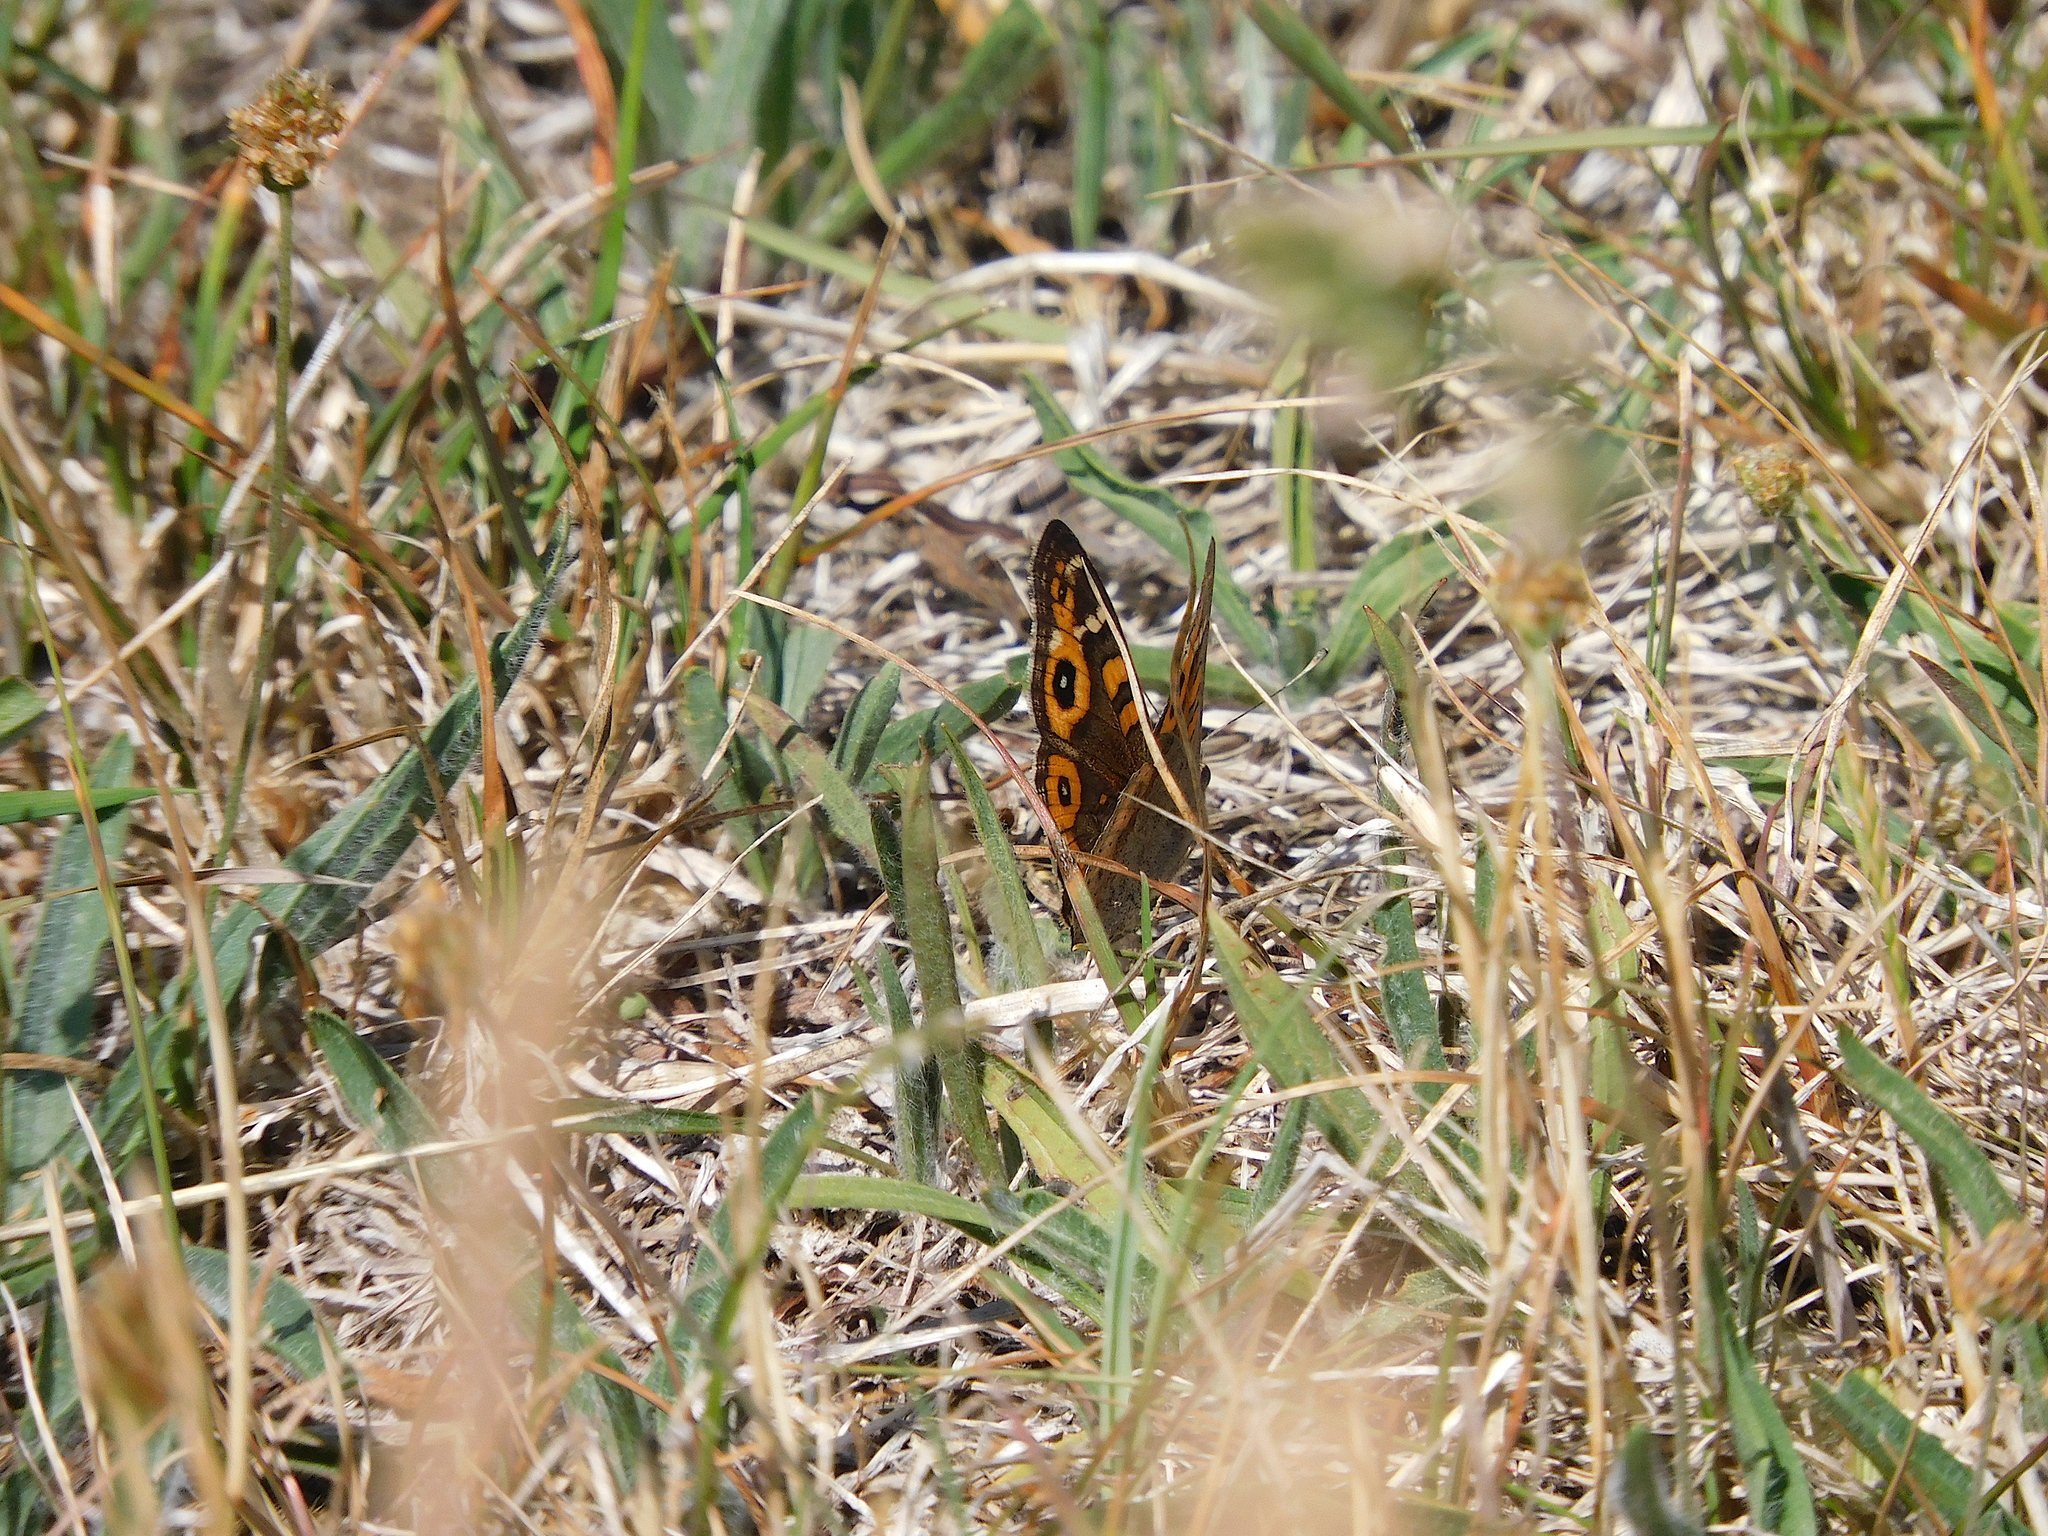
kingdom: Animalia
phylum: Arthropoda
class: Insecta
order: Lepidoptera
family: Nymphalidae
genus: Junonia
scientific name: Junonia villida
